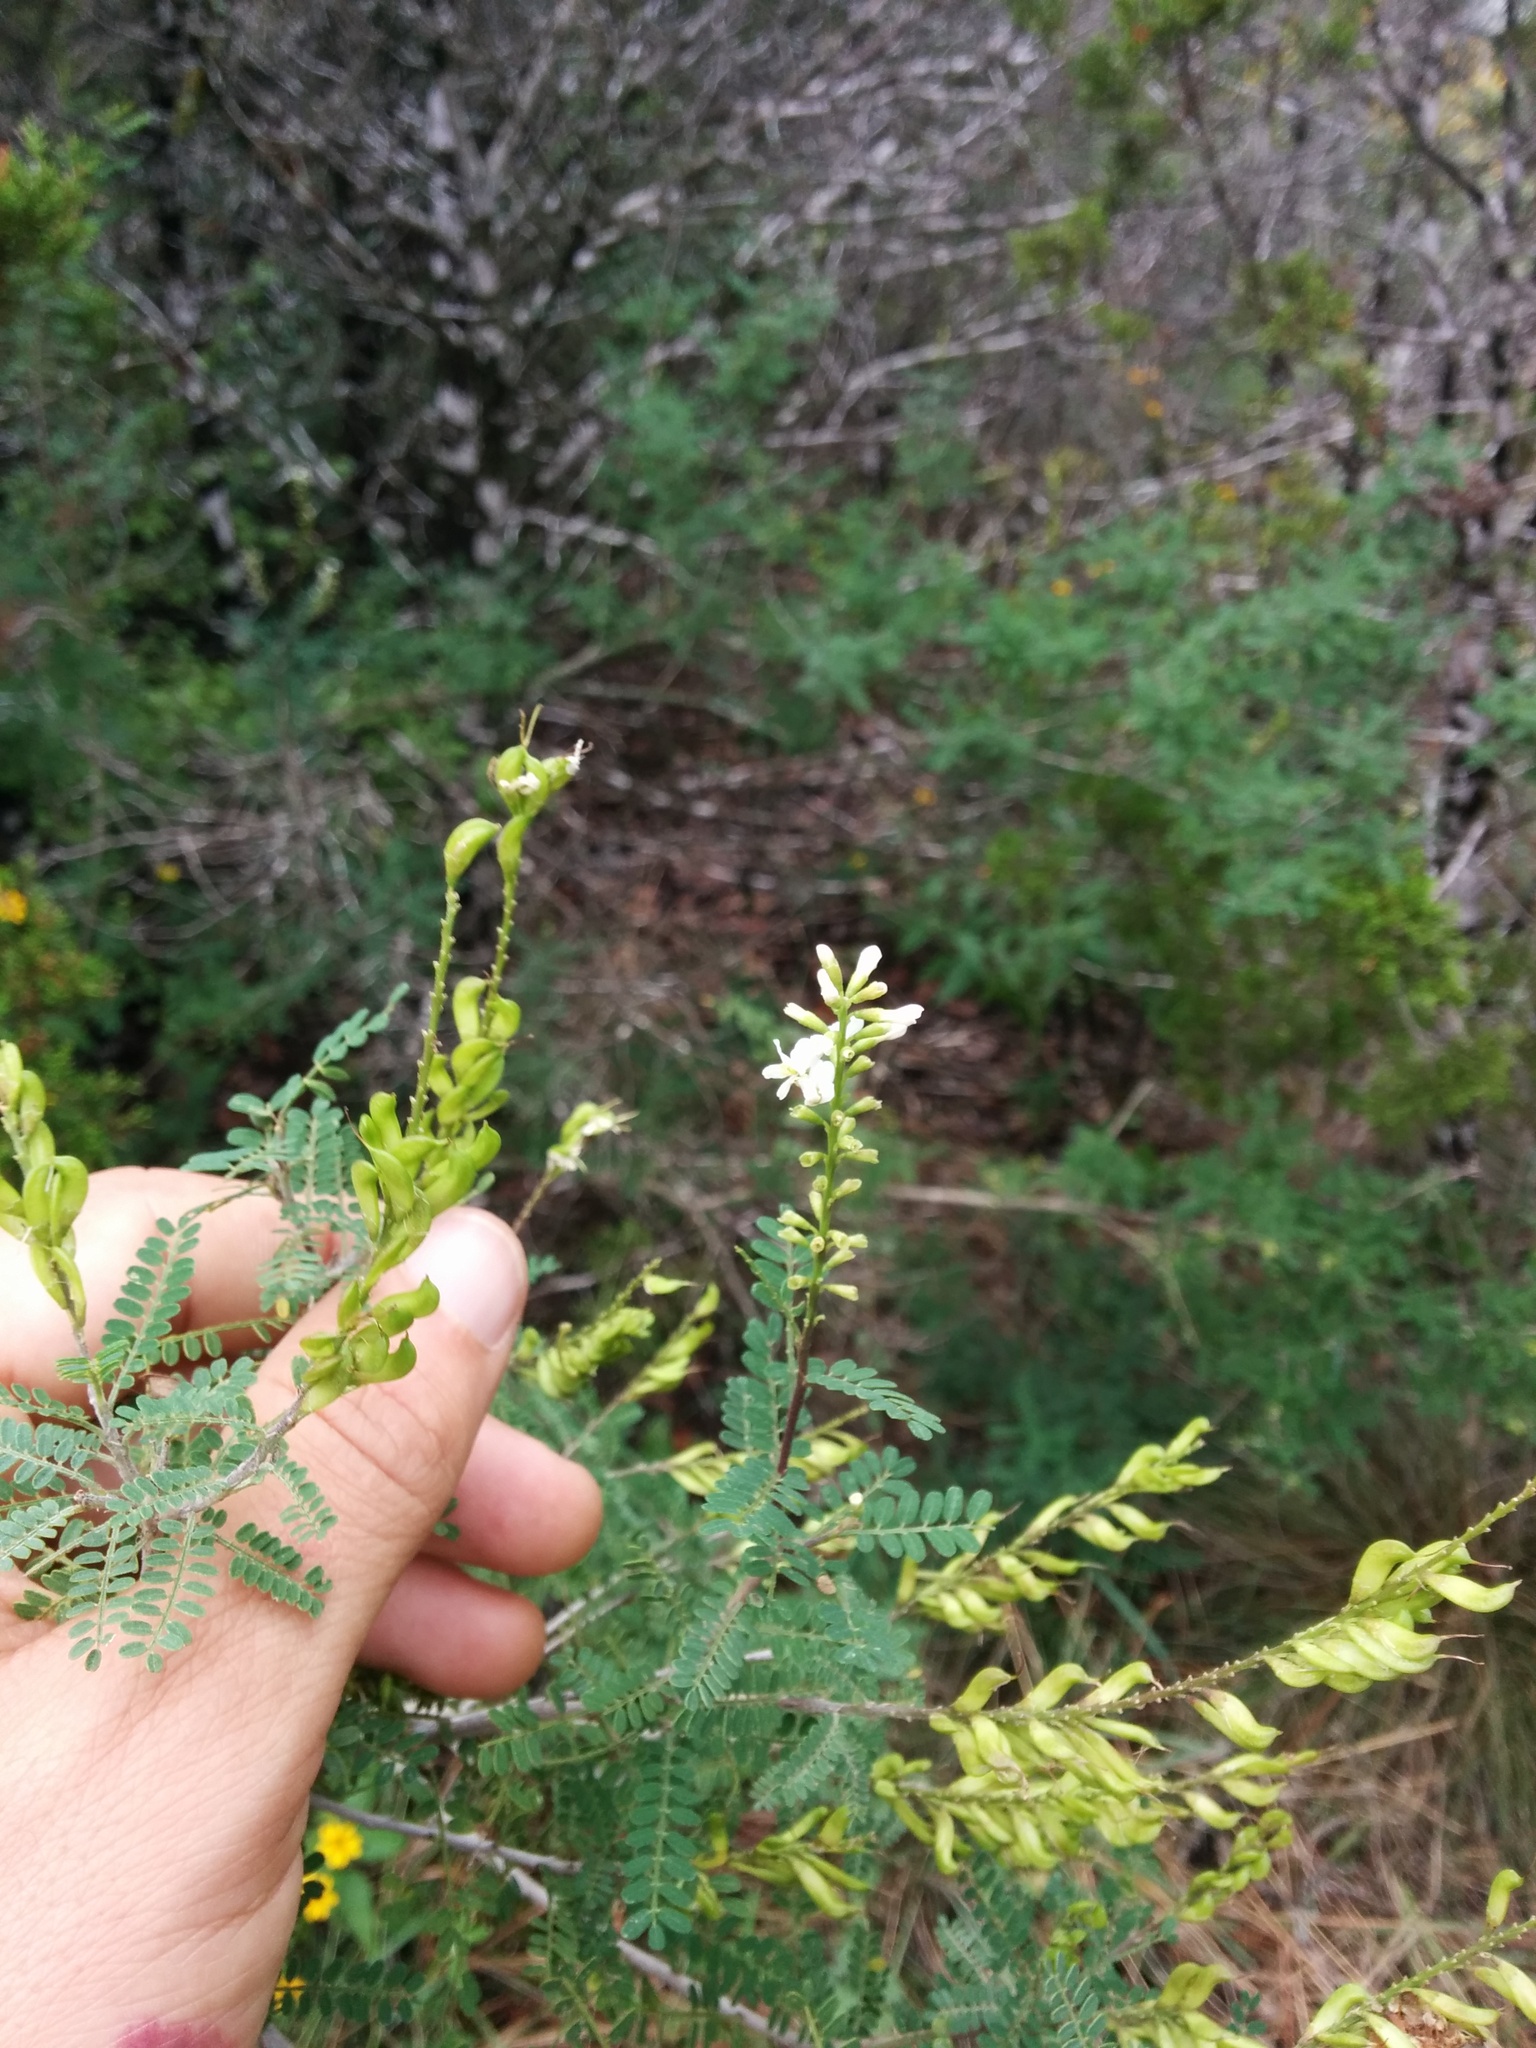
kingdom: Plantae
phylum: Tracheophyta
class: Magnoliopsida
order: Fabales
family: Fabaceae
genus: Eysenhardtia
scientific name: Eysenhardtia texana
